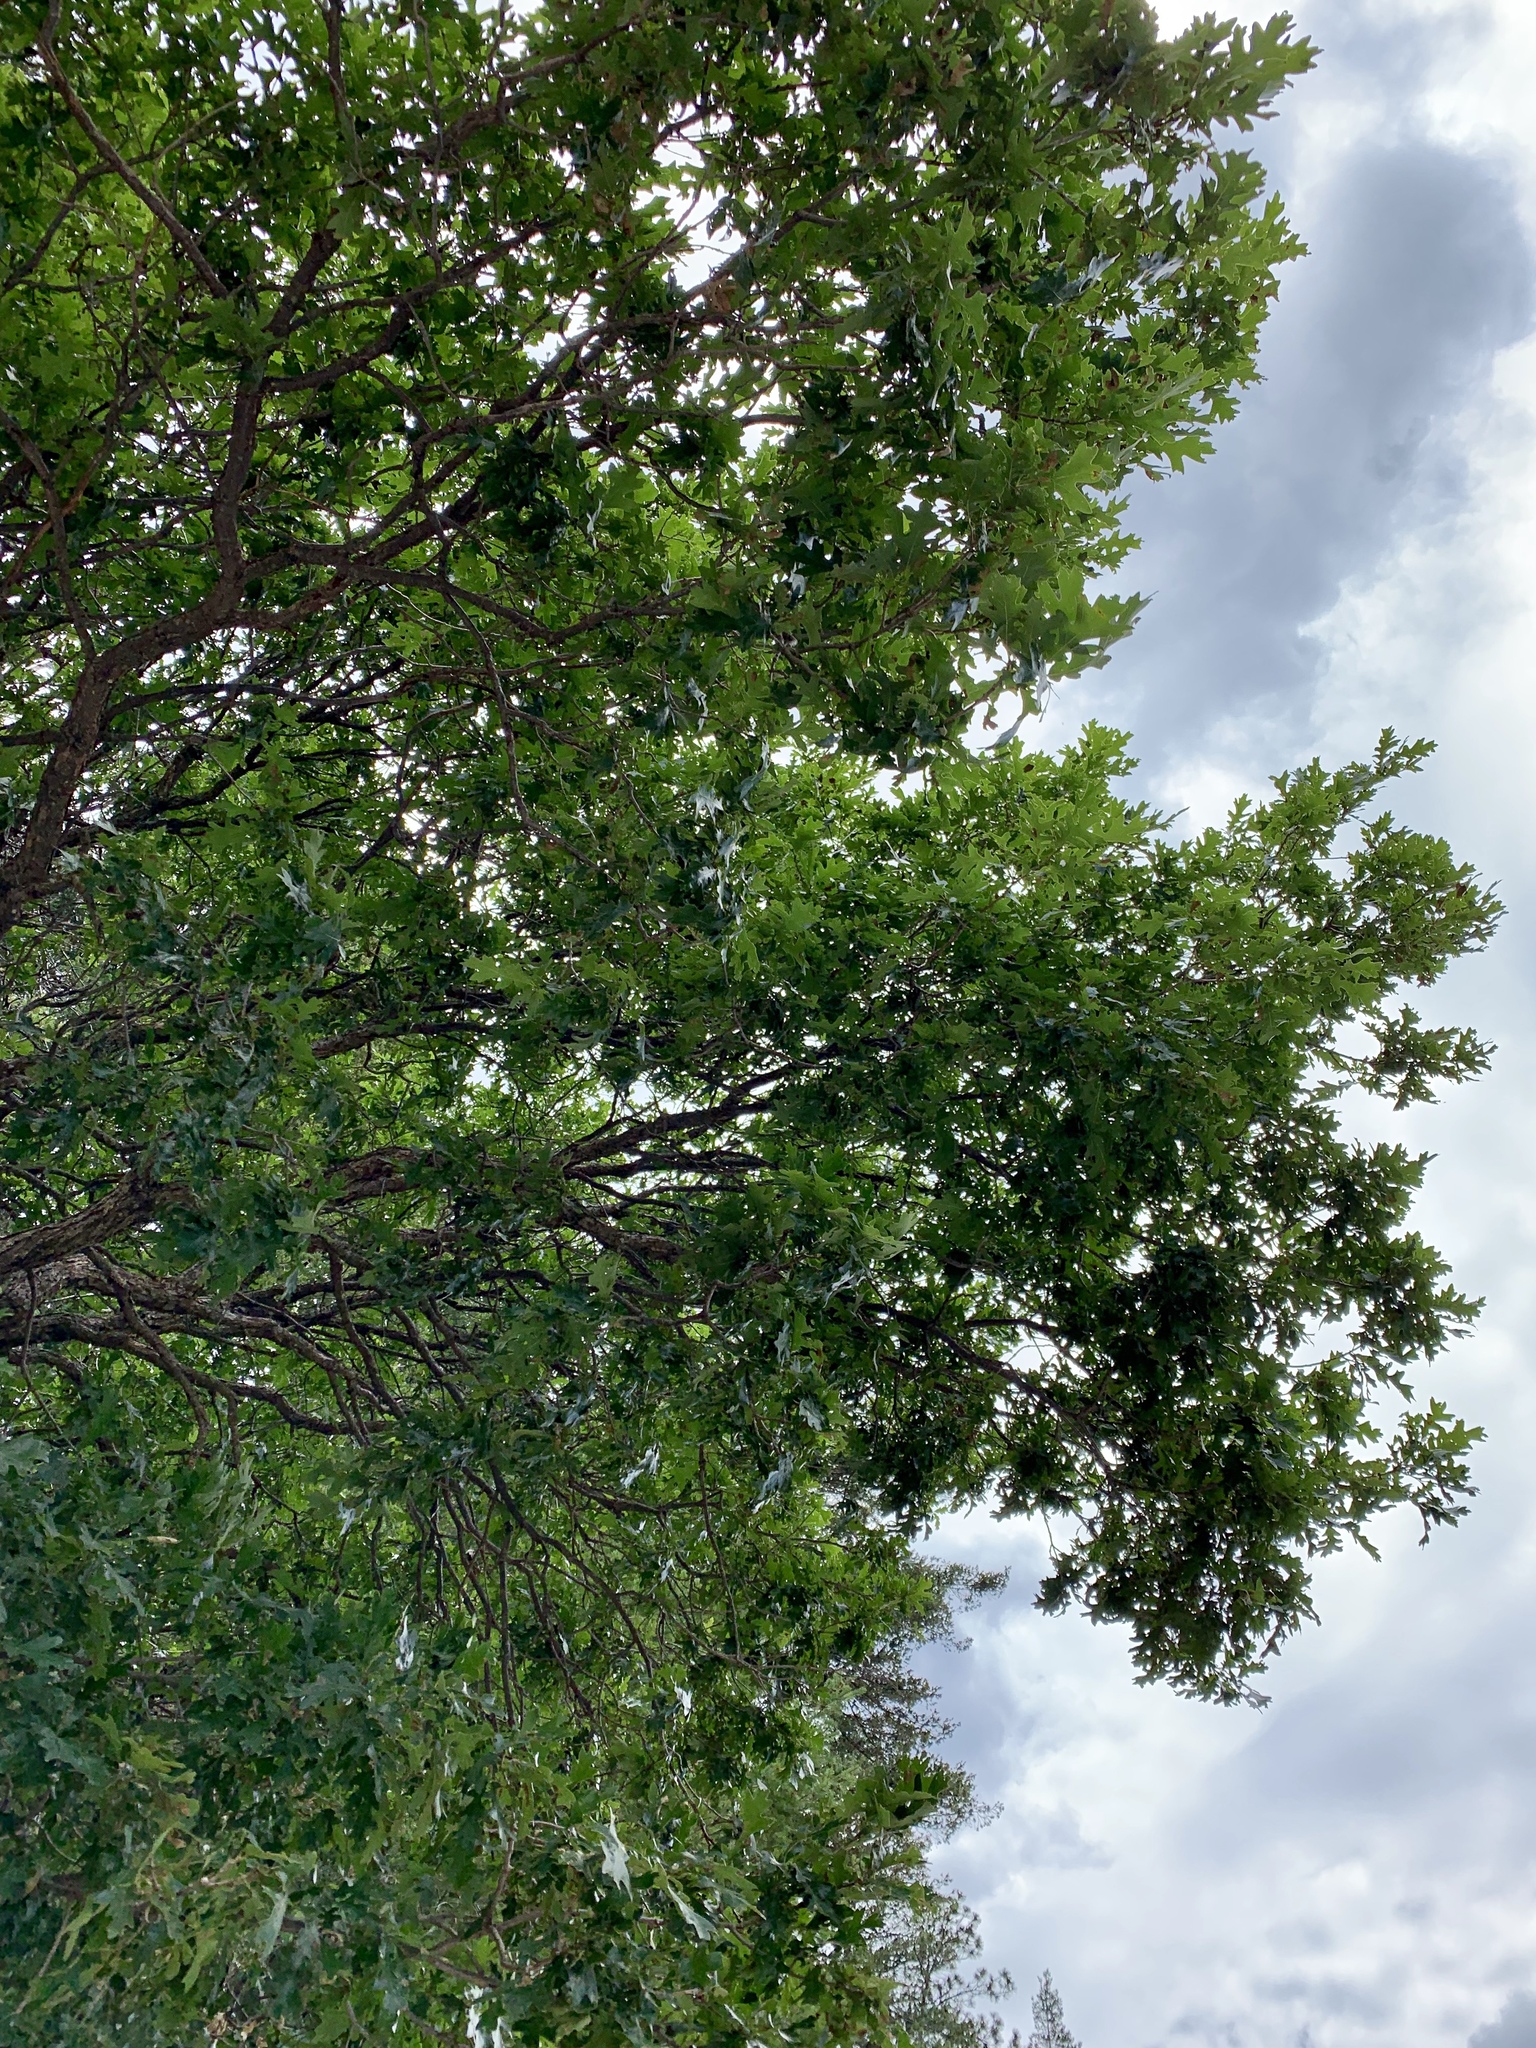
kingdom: Plantae
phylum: Tracheophyta
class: Magnoliopsida
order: Fagales
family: Fagaceae
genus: Quercus
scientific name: Quercus gambelii
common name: Gambel oak
